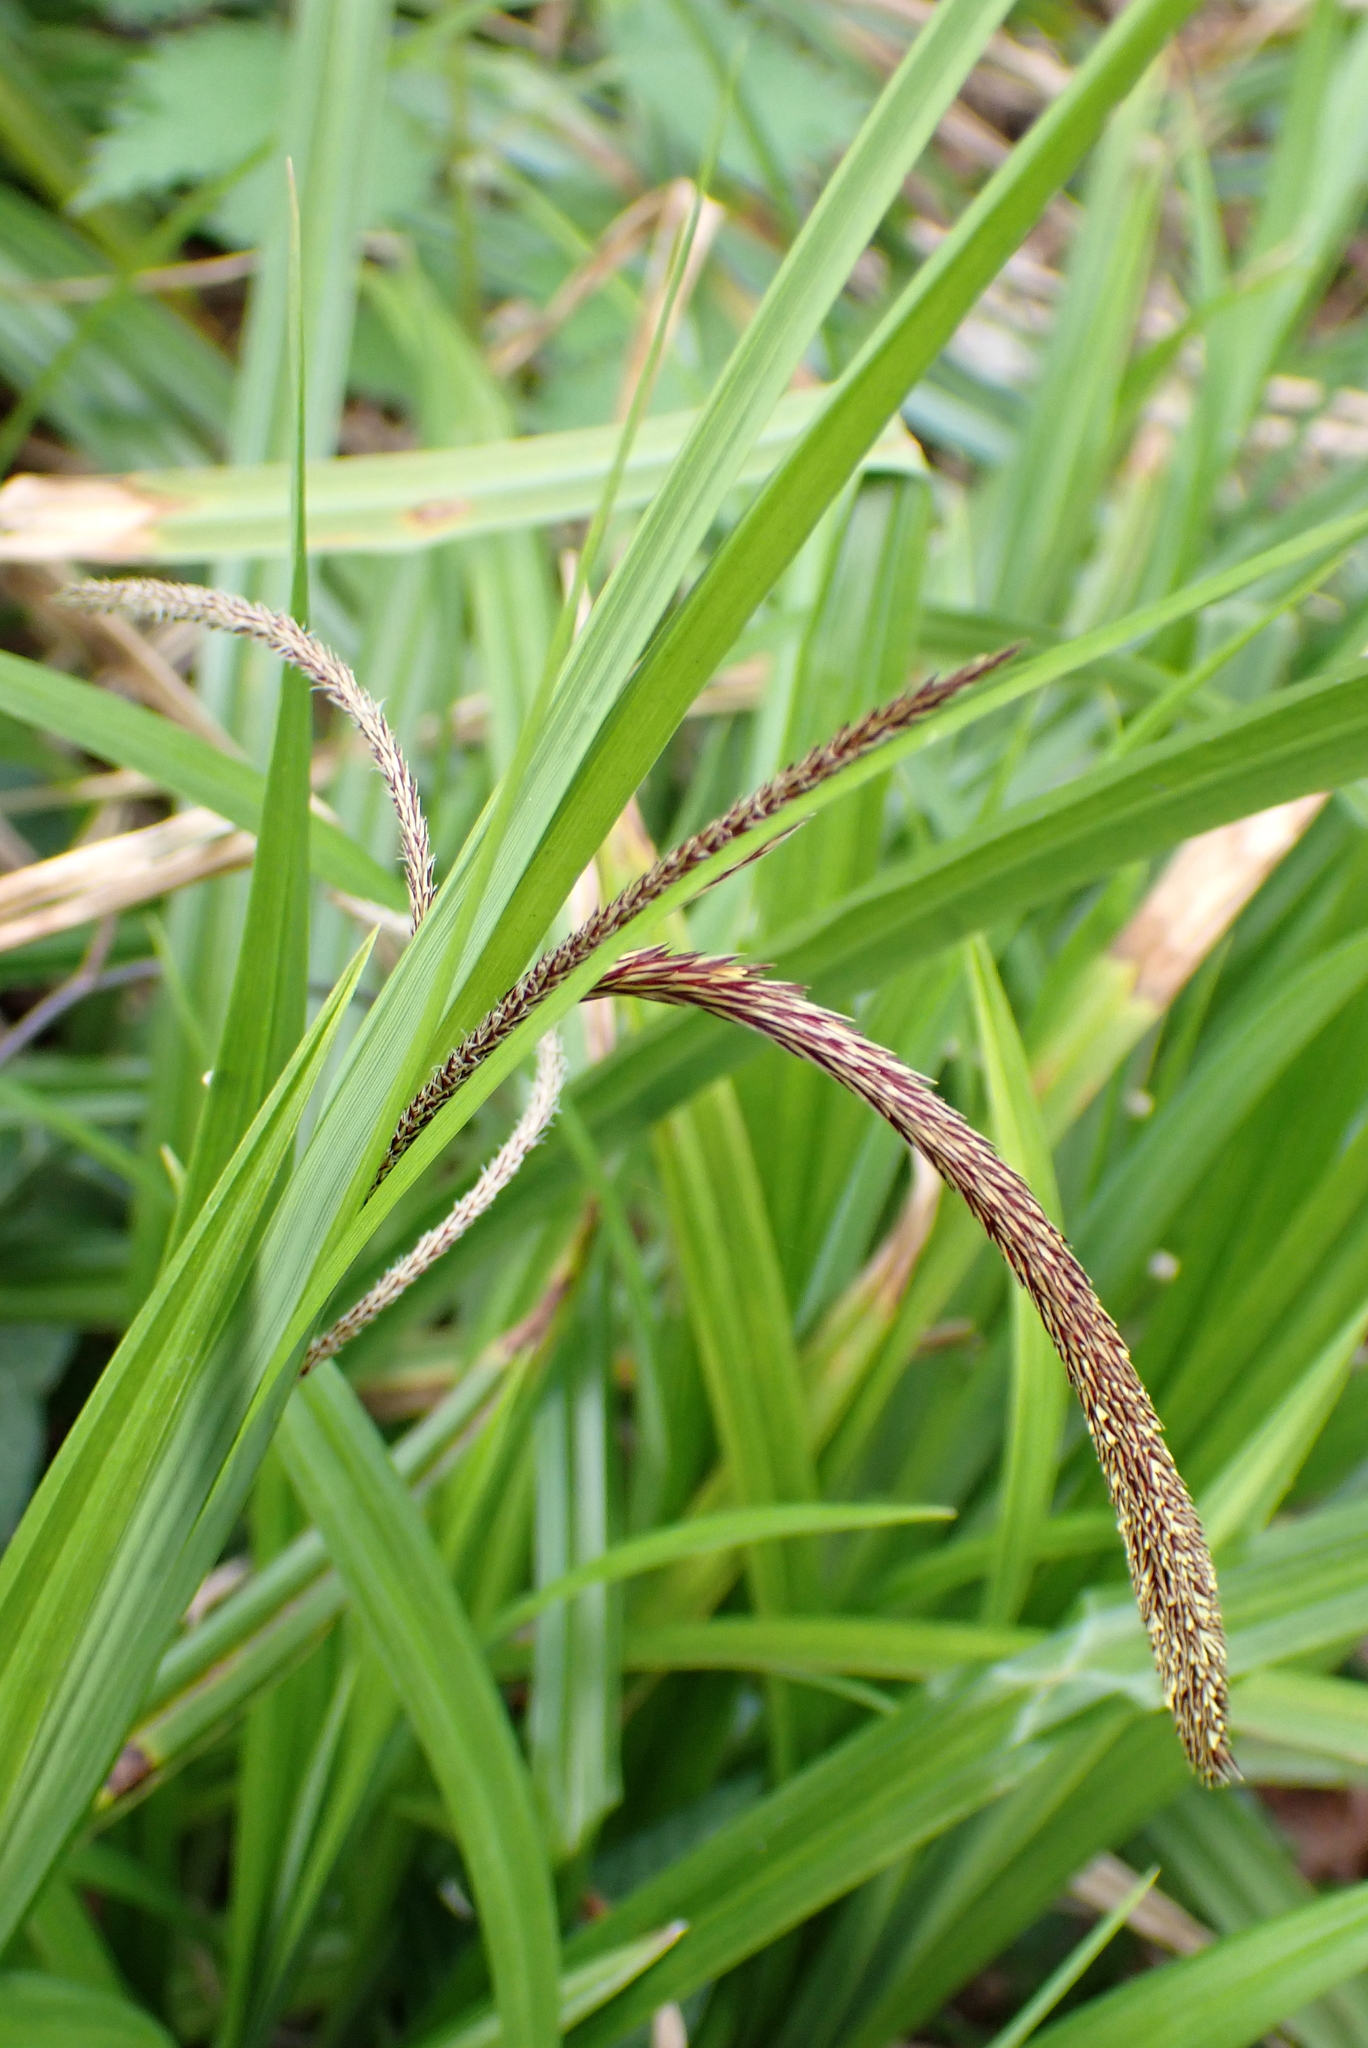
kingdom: Plantae
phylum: Tracheophyta
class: Liliopsida
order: Poales
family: Cyperaceae
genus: Carex
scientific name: Carex pendula
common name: Pendulous sedge
